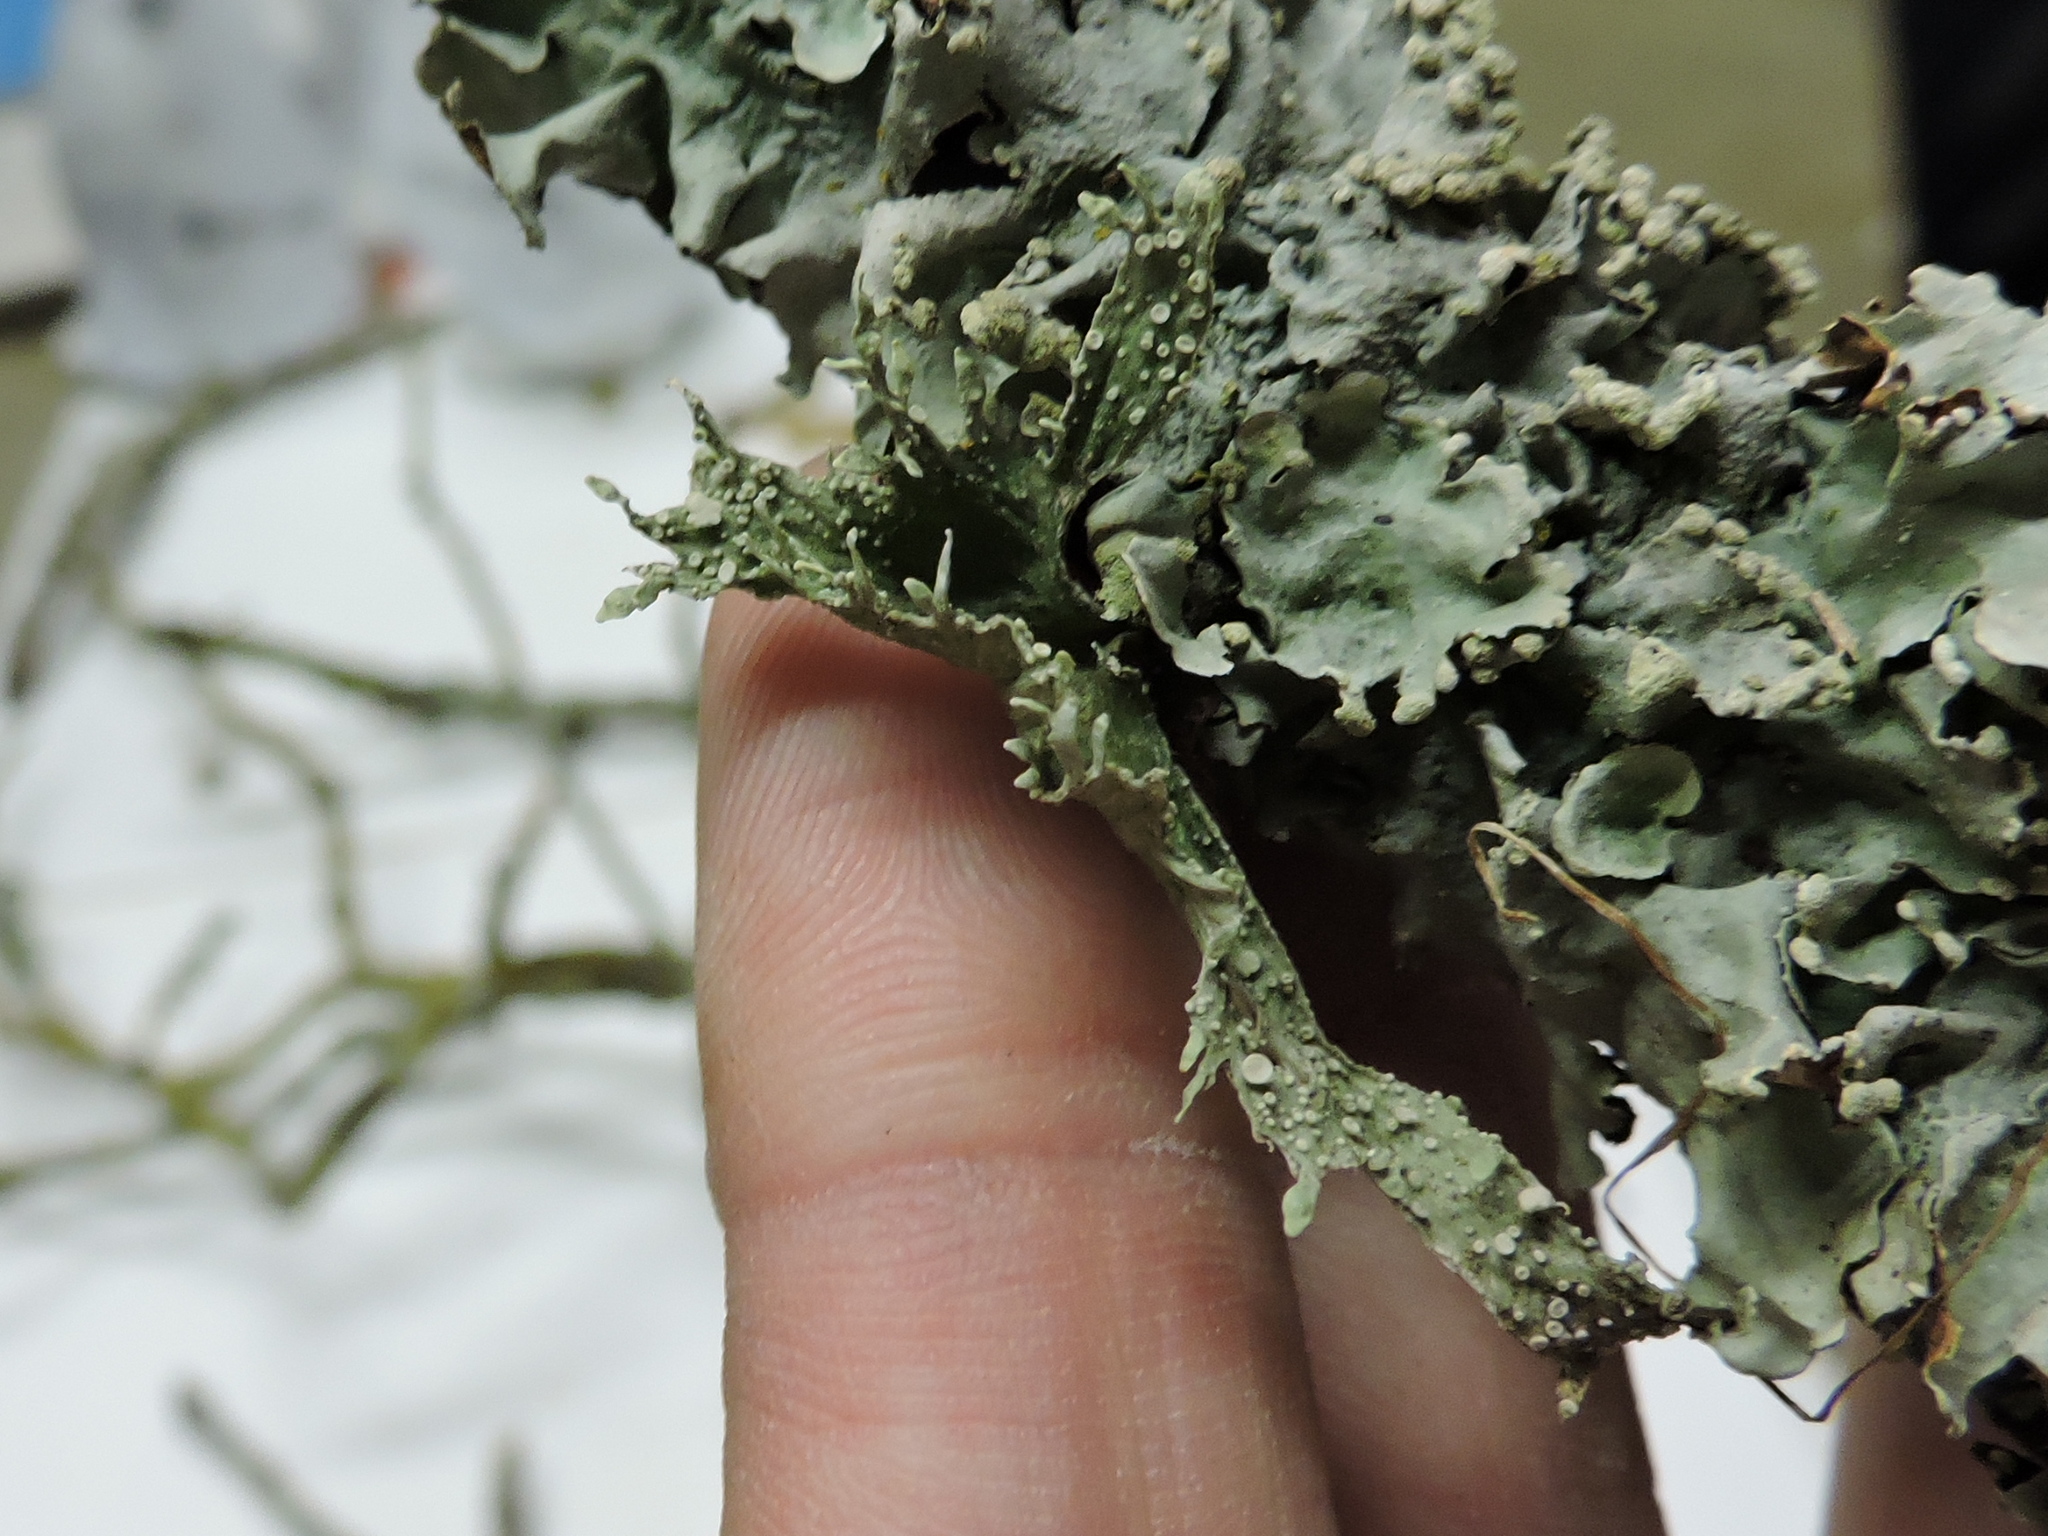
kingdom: Fungi
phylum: Ascomycota
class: Lecanoromycetes
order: Lecanorales
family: Ramalinaceae
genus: Ramalina
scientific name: Ramalina celastri
